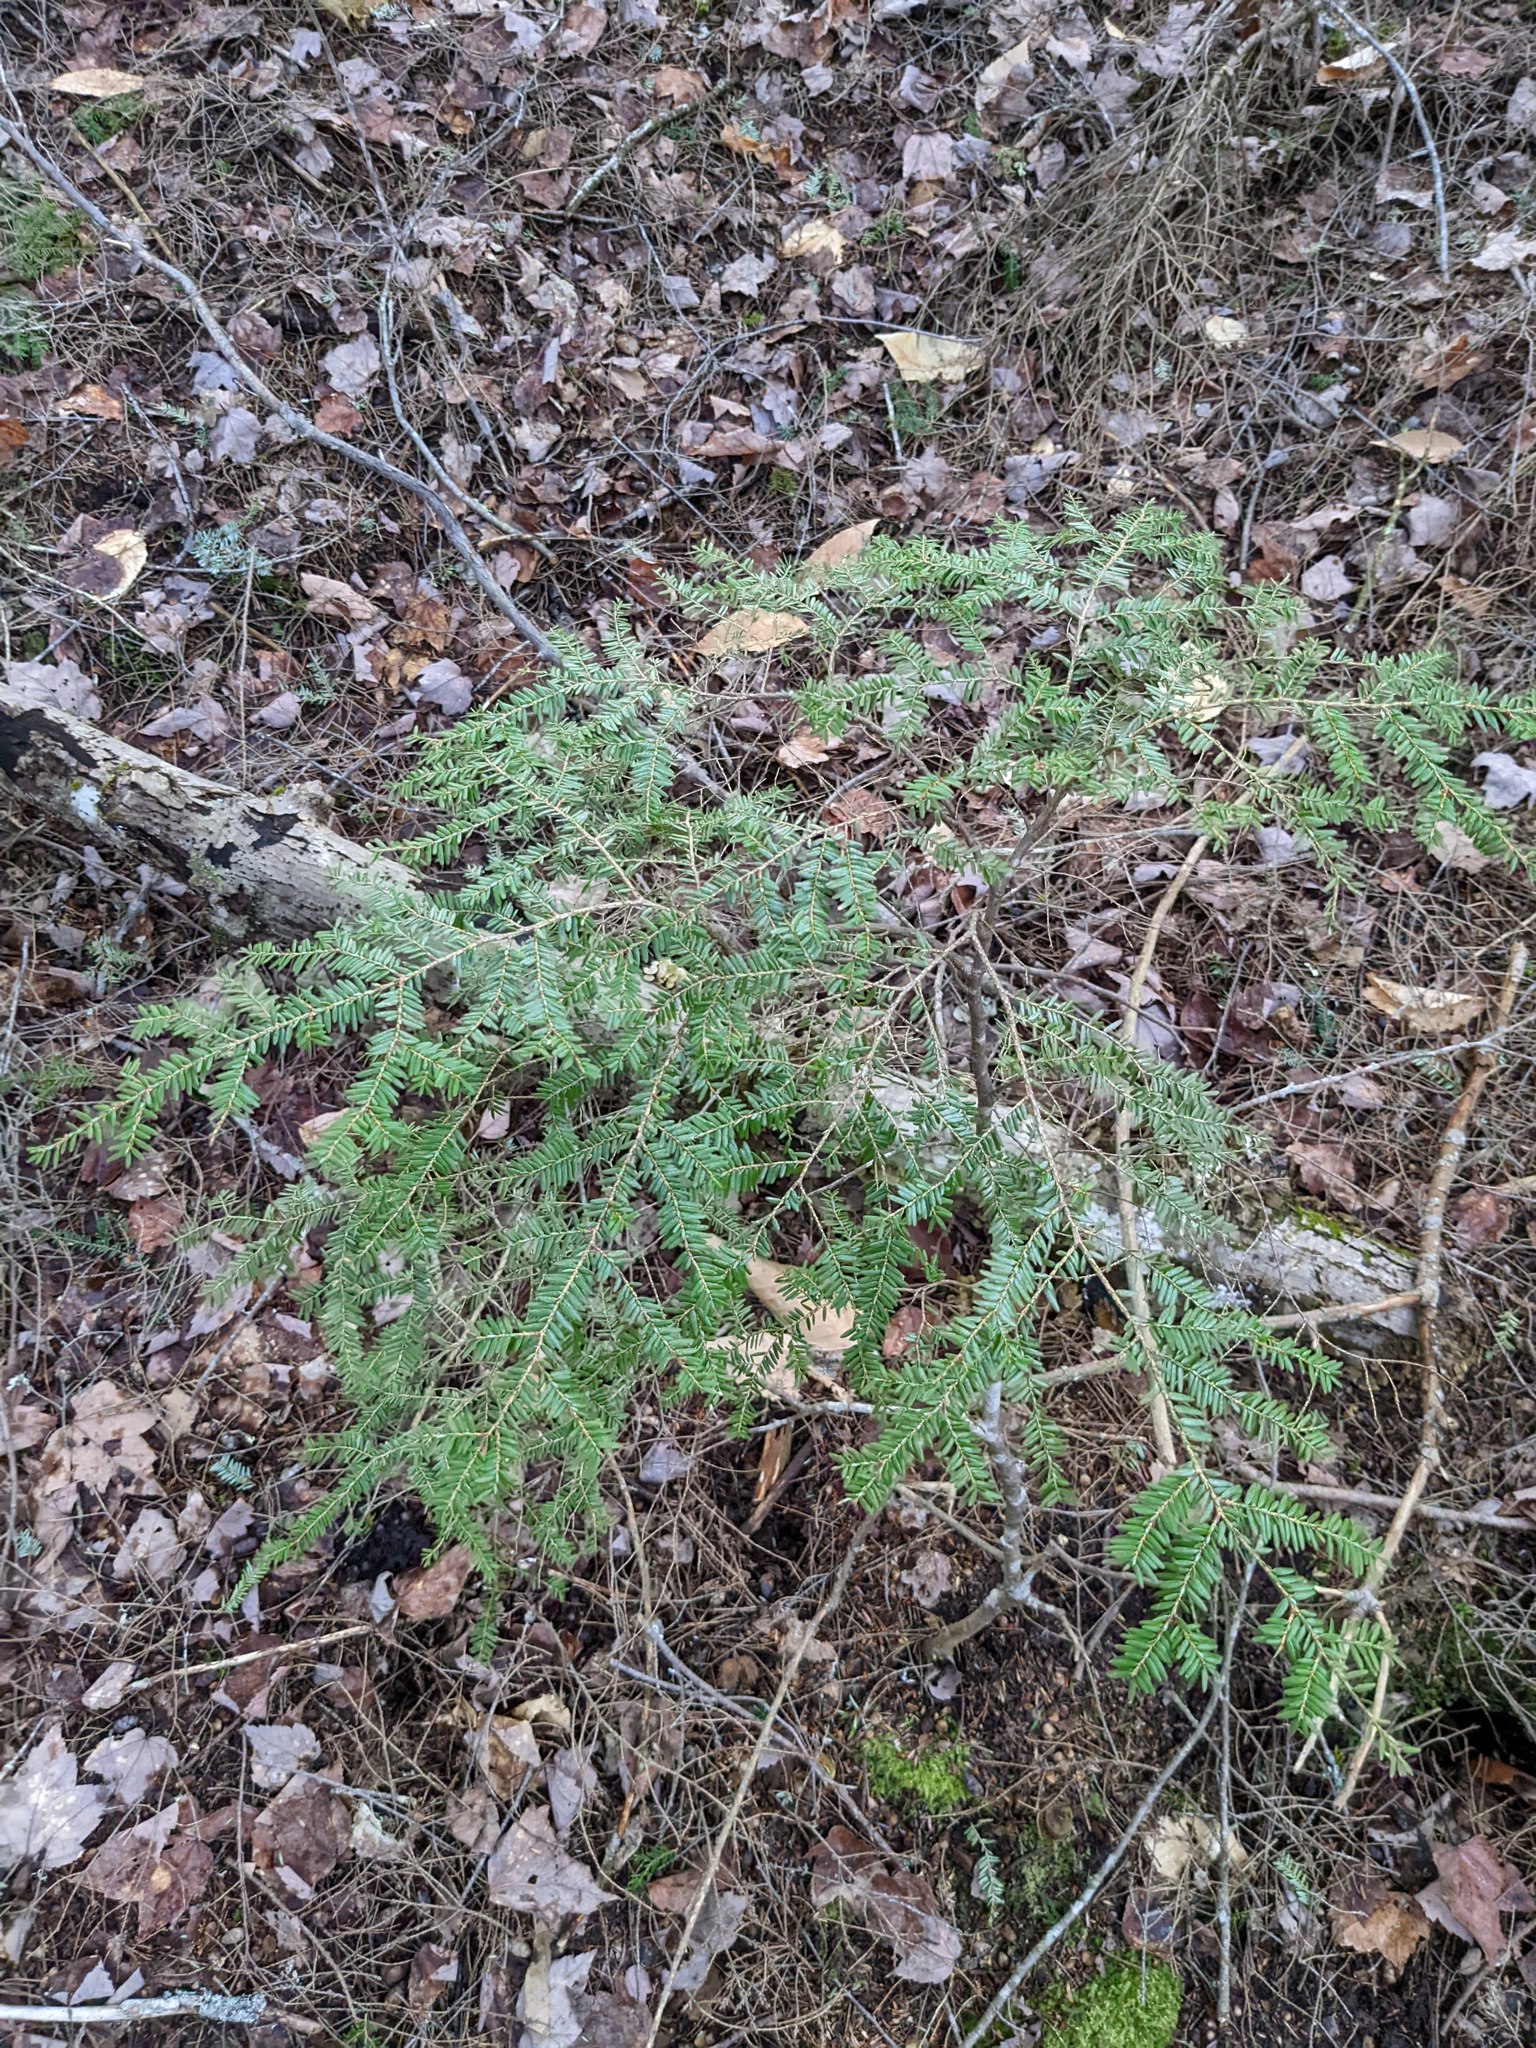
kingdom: Plantae
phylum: Tracheophyta
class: Pinopsida
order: Pinales
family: Pinaceae
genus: Tsuga
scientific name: Tsuga canadensis
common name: Eastern hemlock
